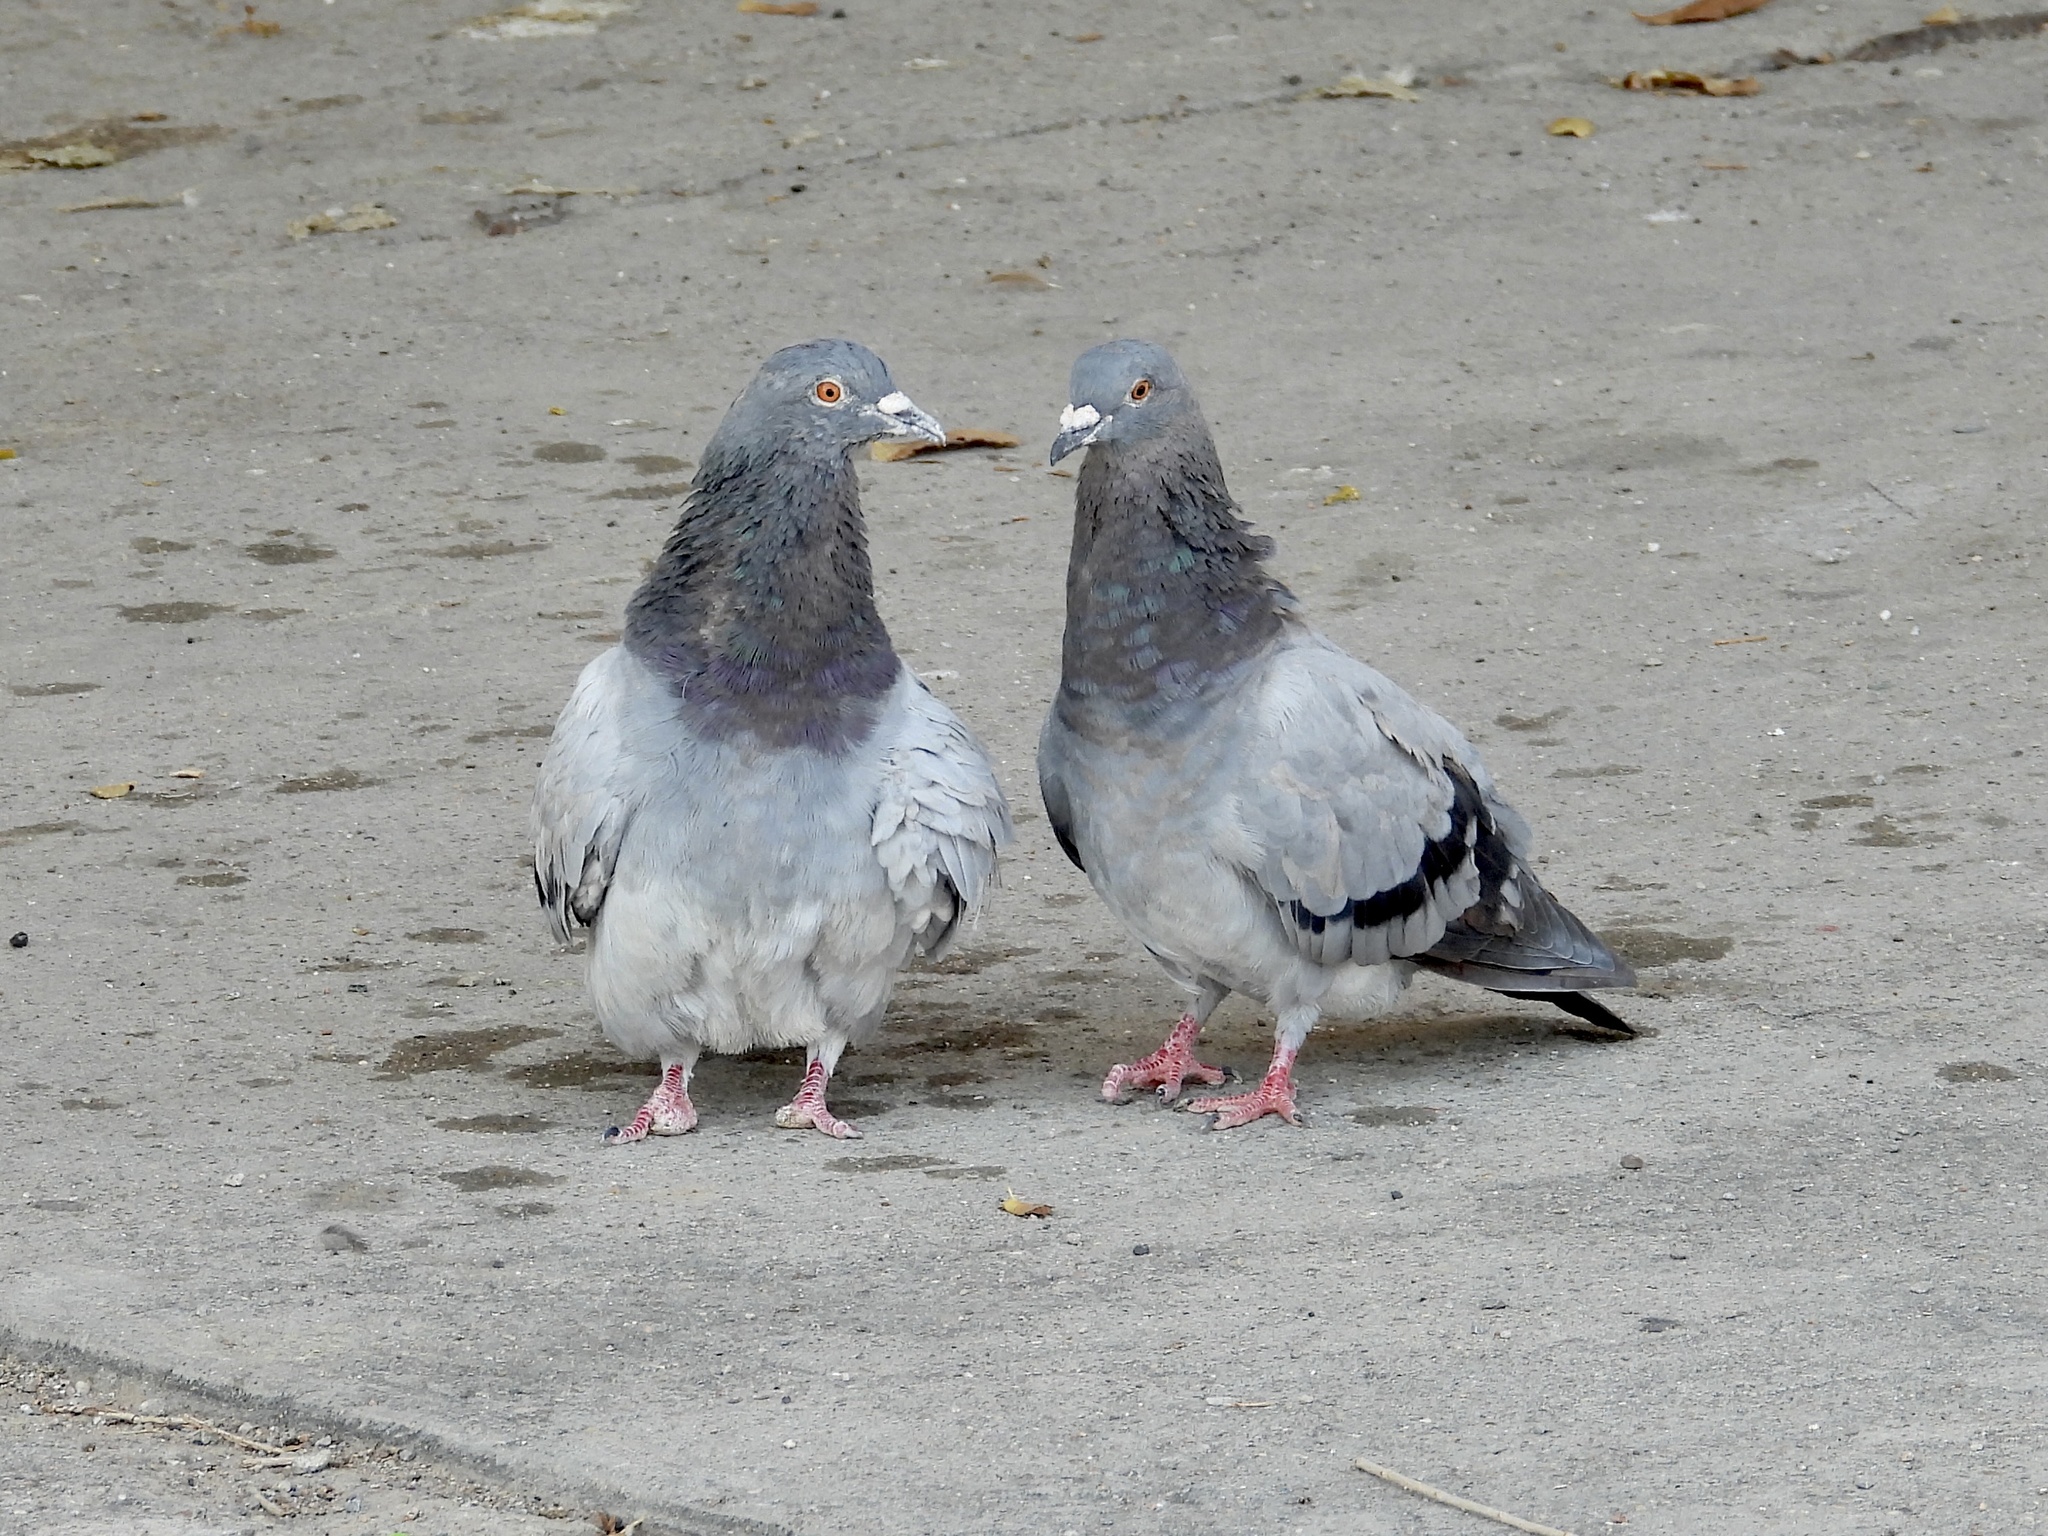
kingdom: Animalia
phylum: Chordata
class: Aves
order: Columbiformes
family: Columbidae
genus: Columba
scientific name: Columba livia
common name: Rock pigeon
